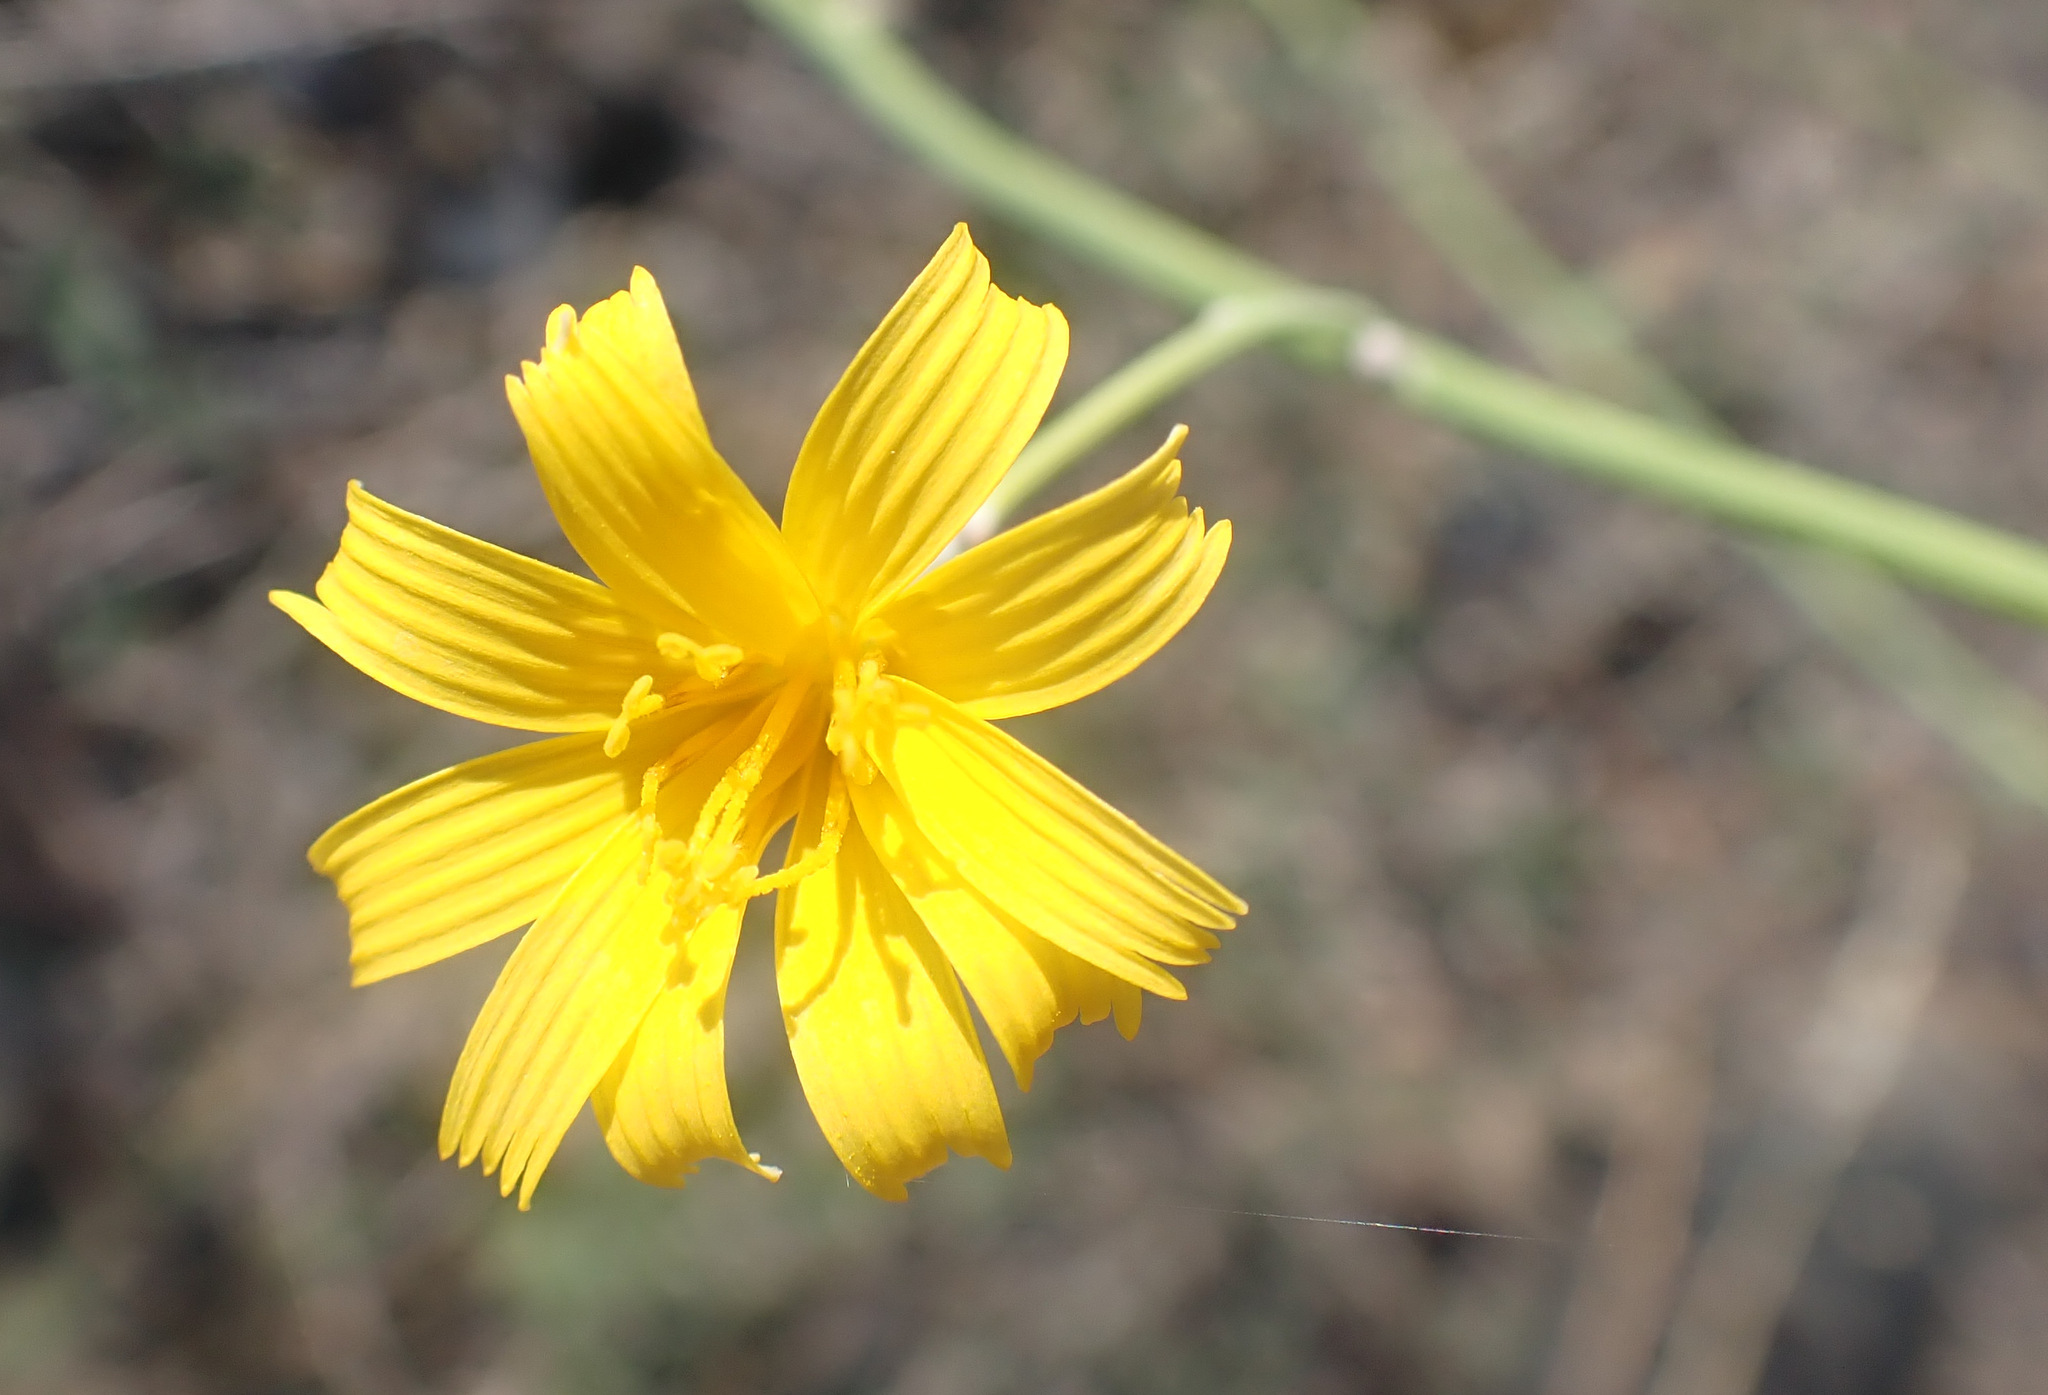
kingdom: Plantae
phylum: Tracheophyta
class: Magnoliopsida
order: Asterales
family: Asteraceae
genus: Chondrilla
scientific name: Chondrilla juncea
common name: Skeleton weed
